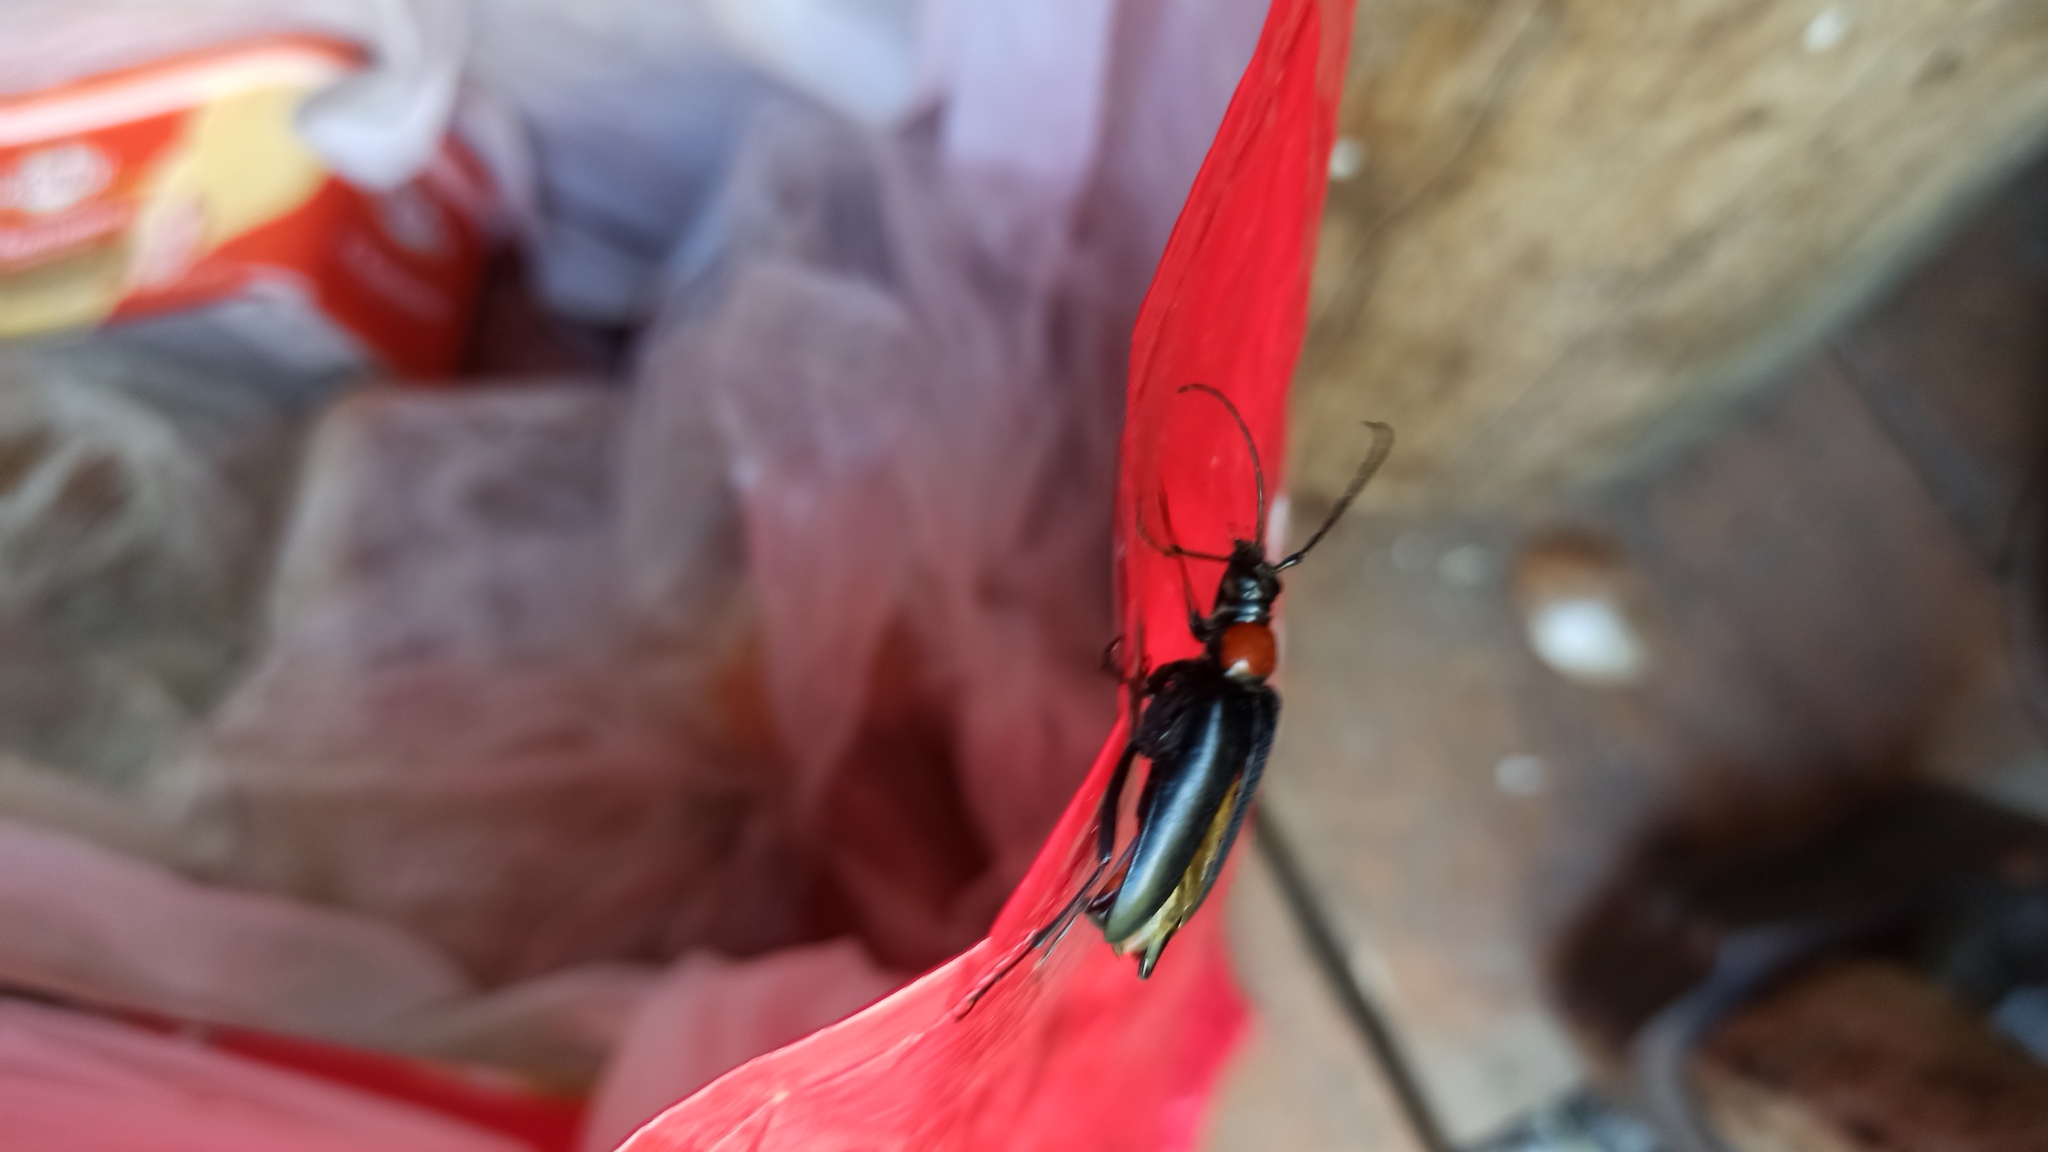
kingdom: Animalia
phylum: Arthropoda
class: Insecta
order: Coleoptera
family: Cerambycidae
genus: Leptura
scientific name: Leptura thoracica
